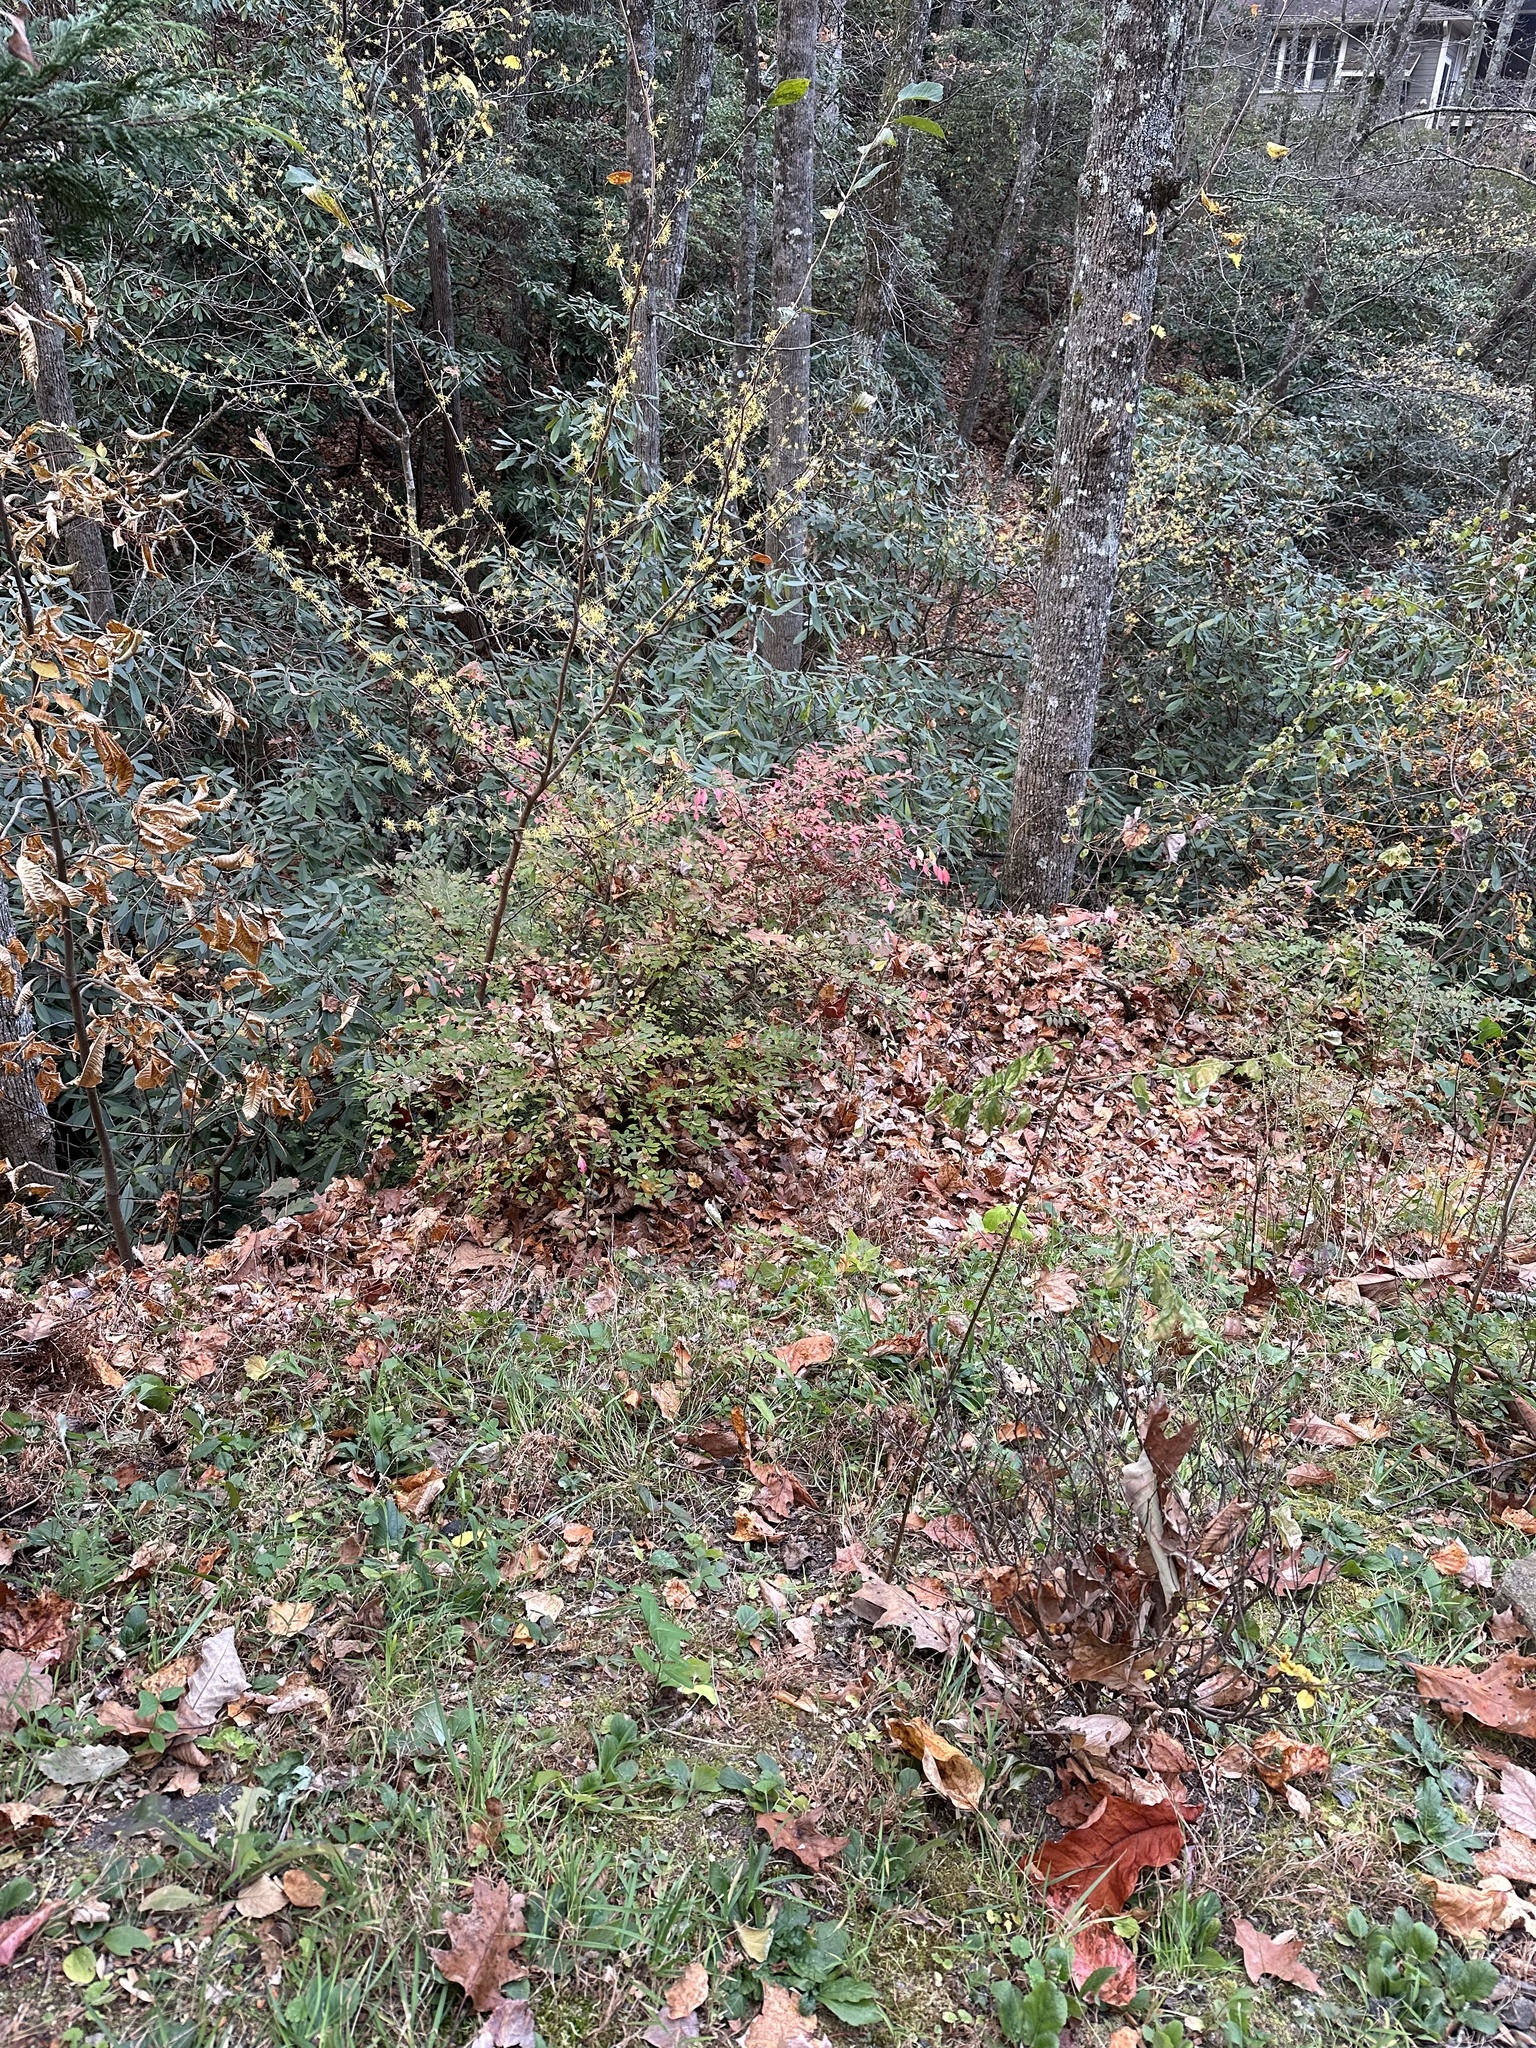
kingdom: Plantae
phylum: Tracheophyta
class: Magnoliopsida
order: Celastrales
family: Celastraceae
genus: Euonymus
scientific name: Euonymus alatus
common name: Winged euonymus
